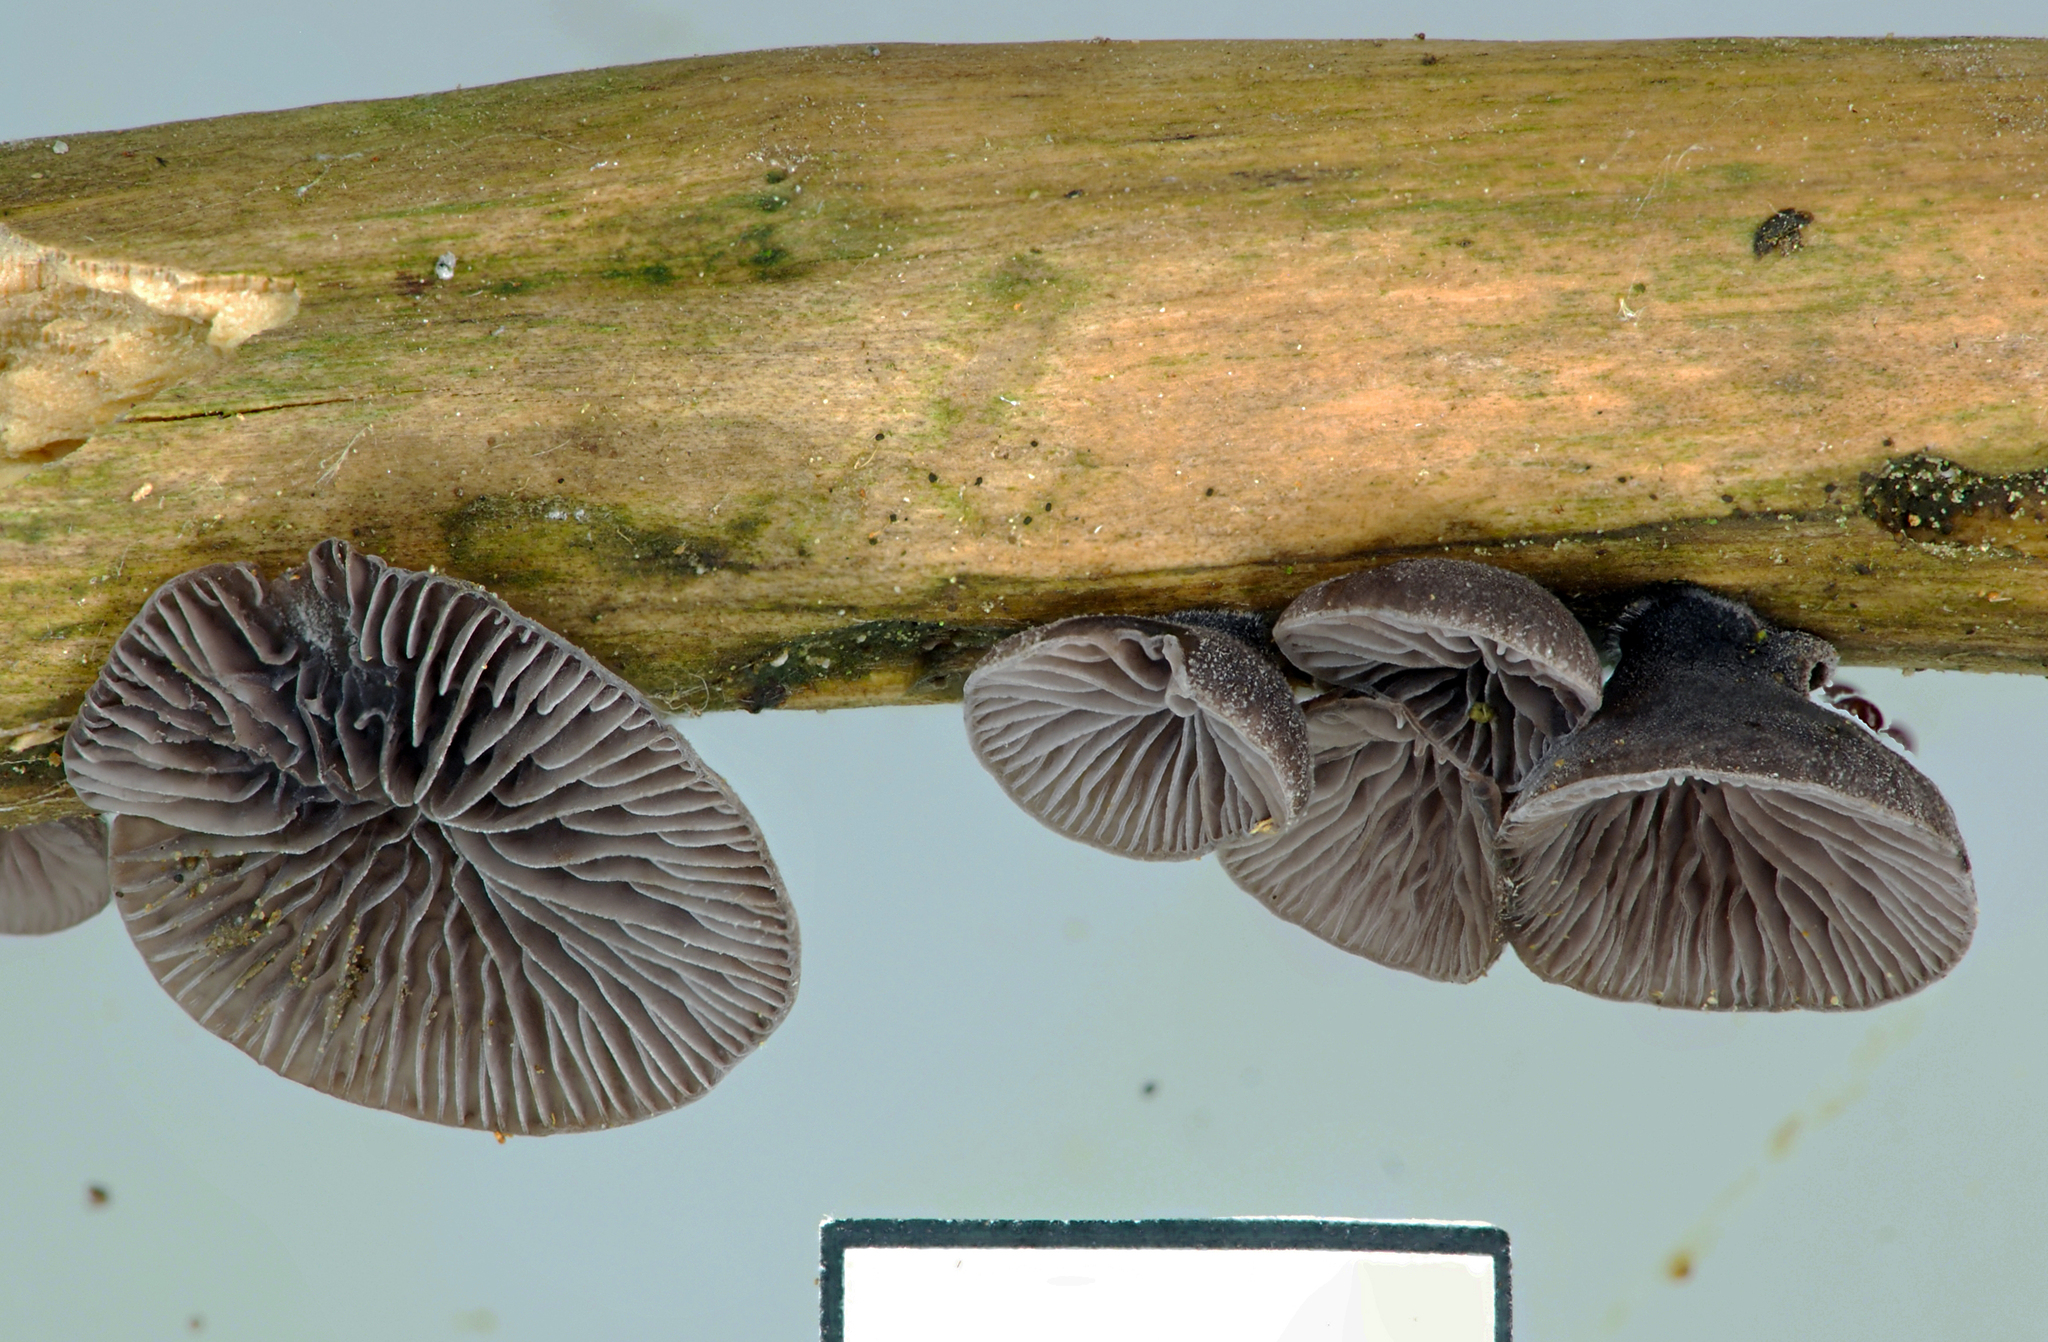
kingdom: Fungi
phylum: Basidiomycota
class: Agaricomycetes
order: Agaricales
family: Omphalotaceae
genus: Marasmiellus
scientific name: Marasmiellus violaceogriseus
